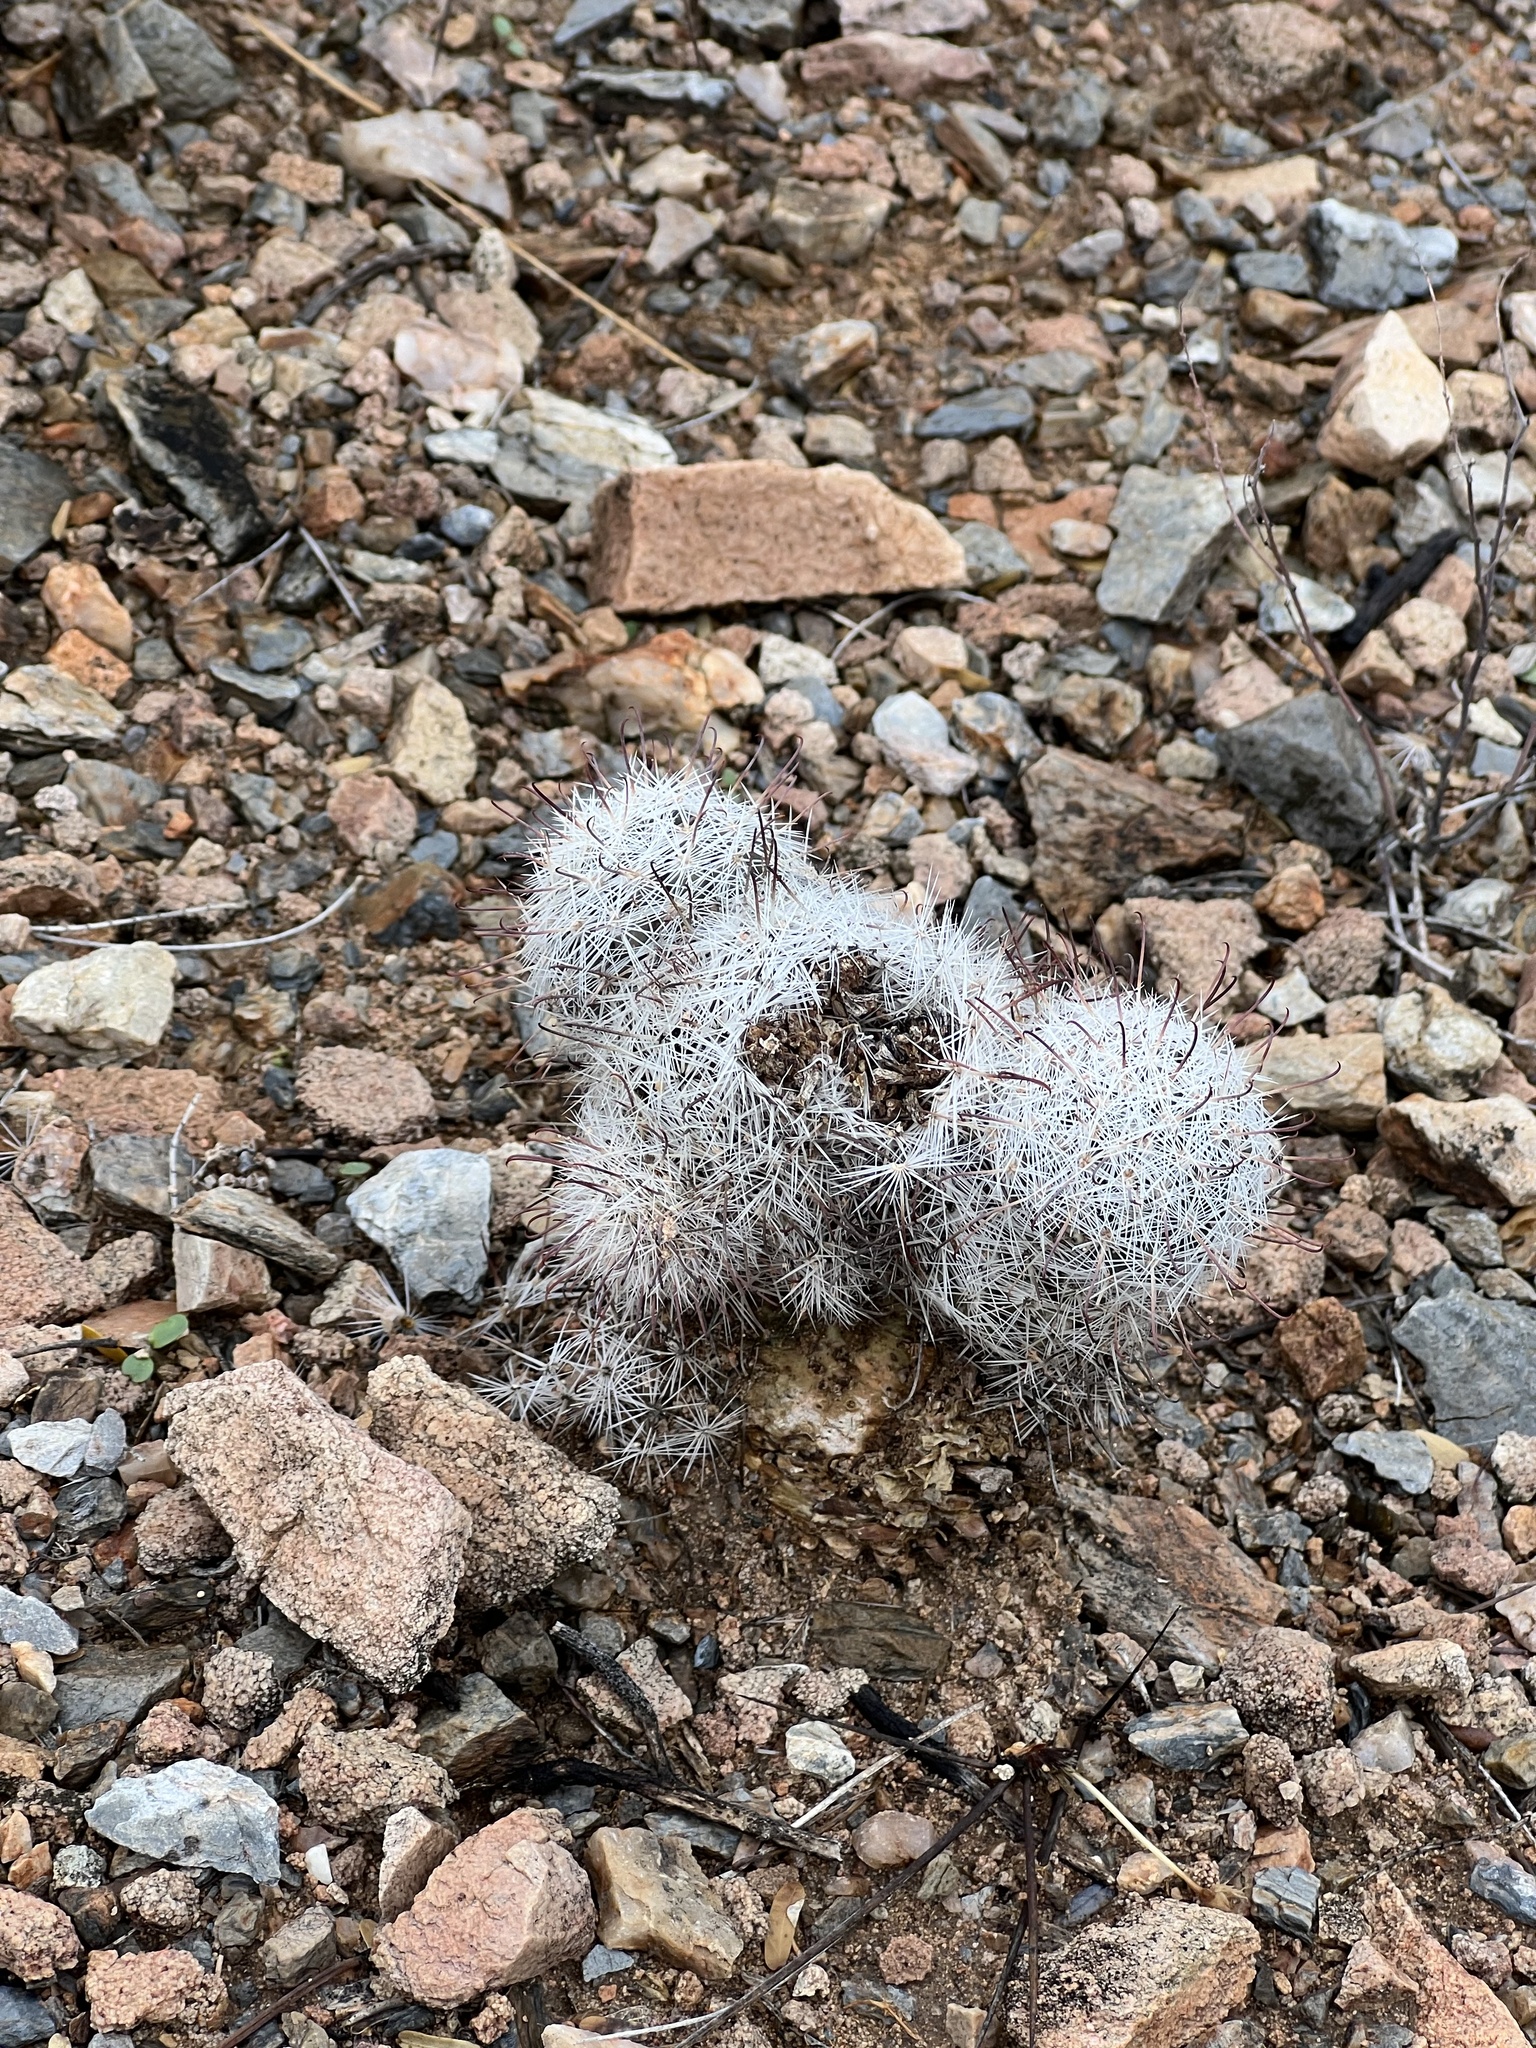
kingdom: Plantae
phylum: Tracheophyta
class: Magnoliopsida
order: Caryophyllales
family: Cactaceae
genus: Cochemiea
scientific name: Cochemiea grahamii
